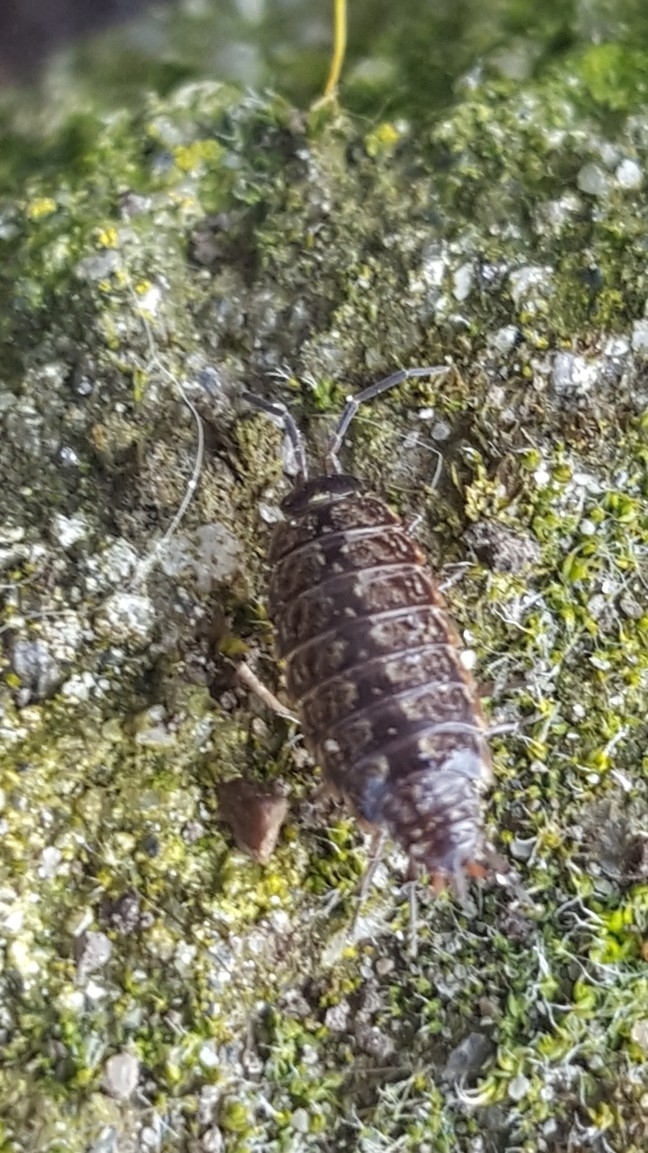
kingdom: Animalia
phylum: Arthropoda
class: Malacostraca
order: Isopoda
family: Philosciidae
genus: Philoscia
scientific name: Philoscia muscorum
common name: Common striped woodlouse
